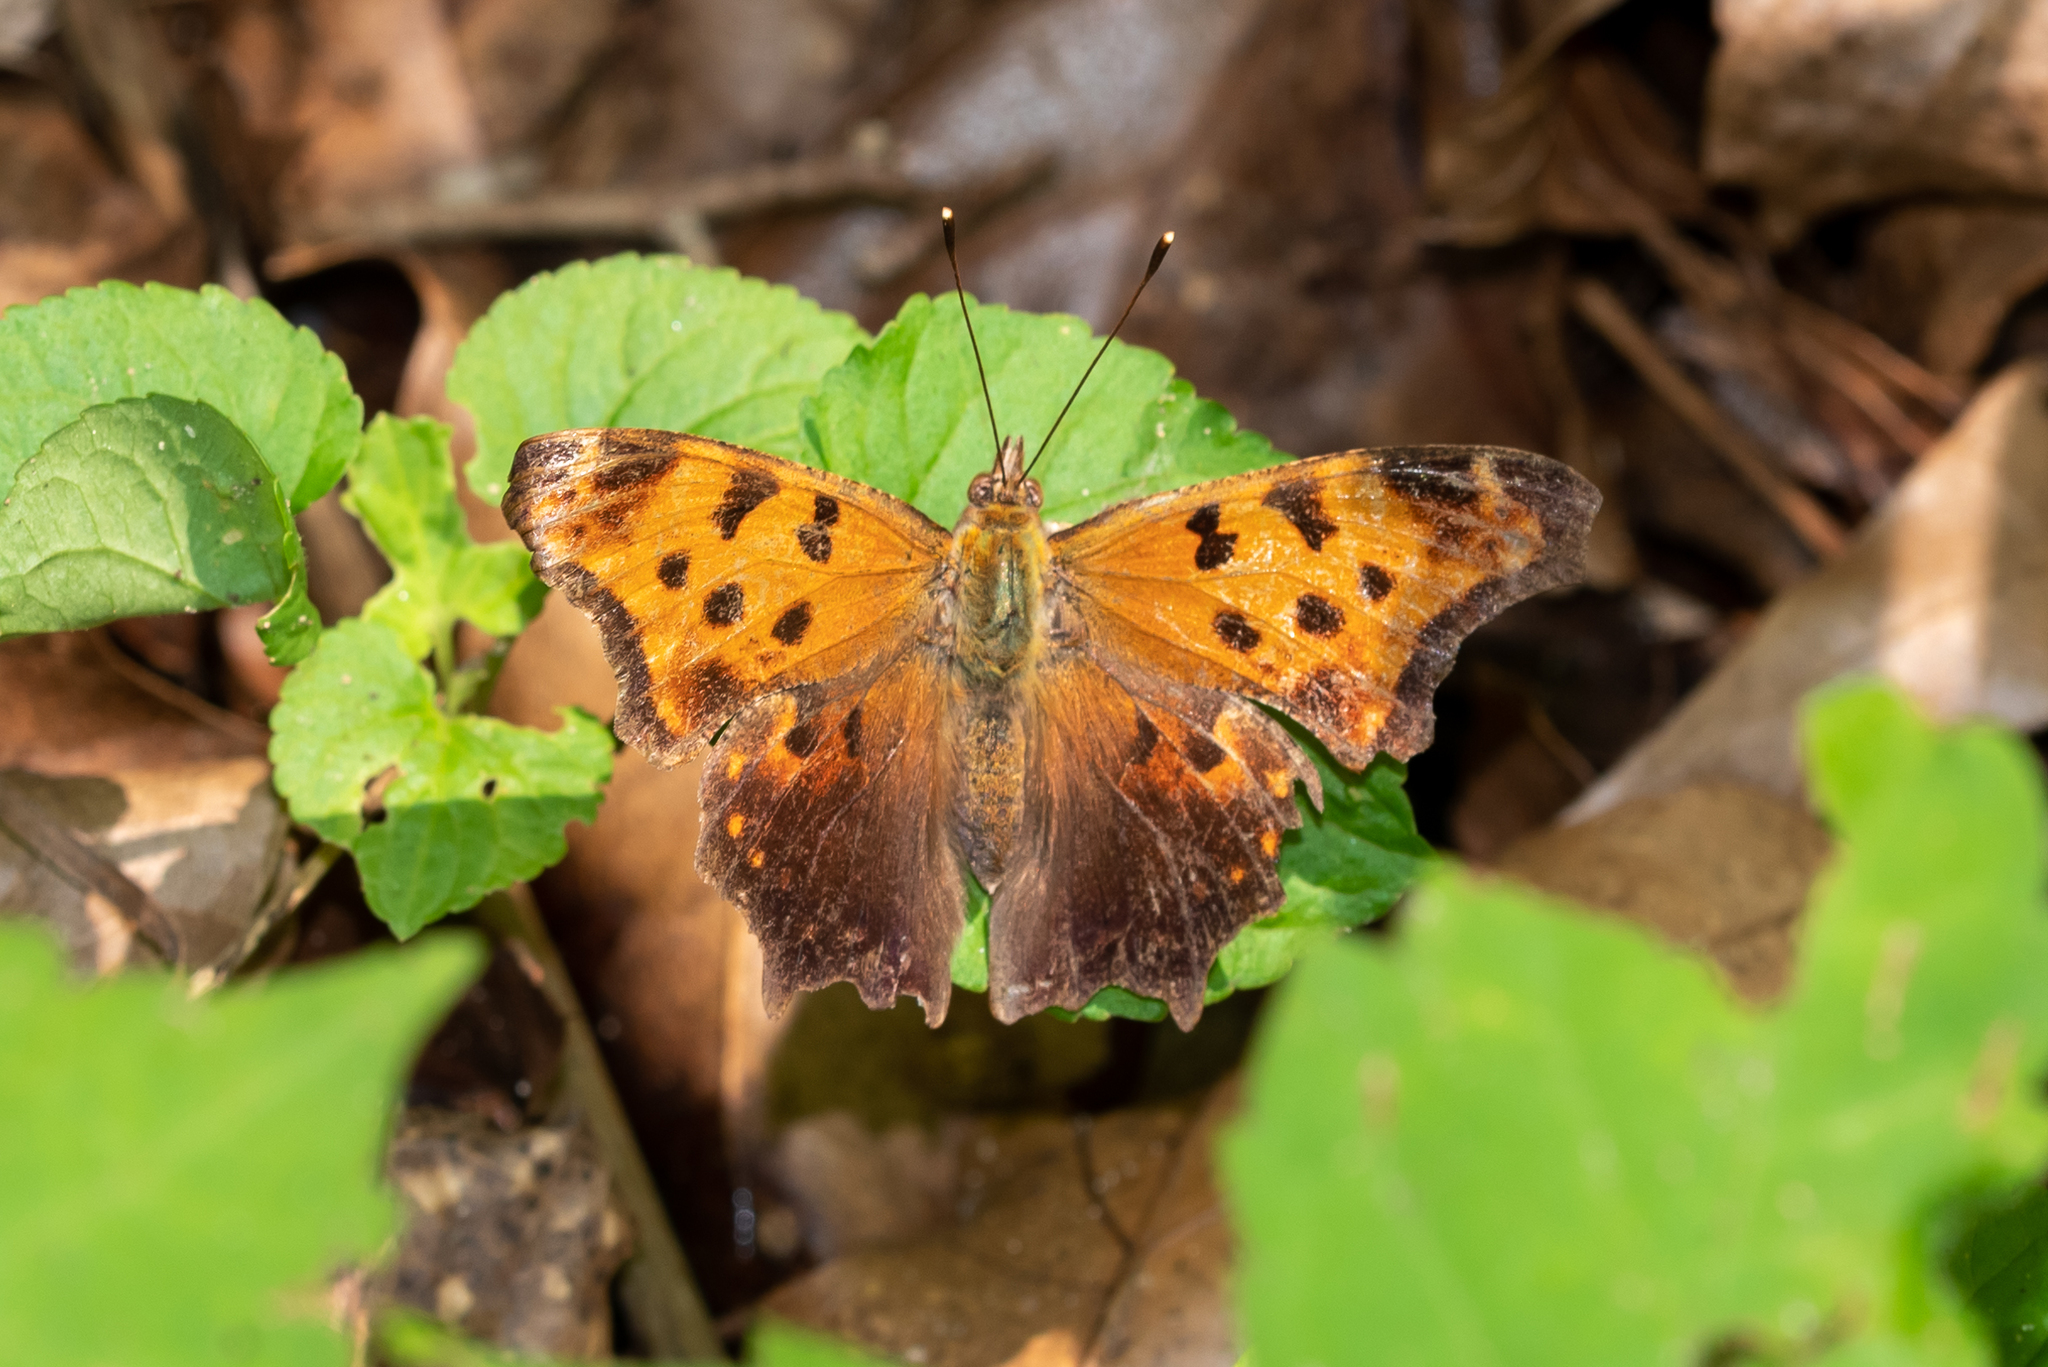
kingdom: Animalia
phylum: Arthropoda
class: Insecta
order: Lepidoptera
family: Nymphalidae
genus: Polygonia
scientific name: Polygonia comma
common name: Eastern comma
